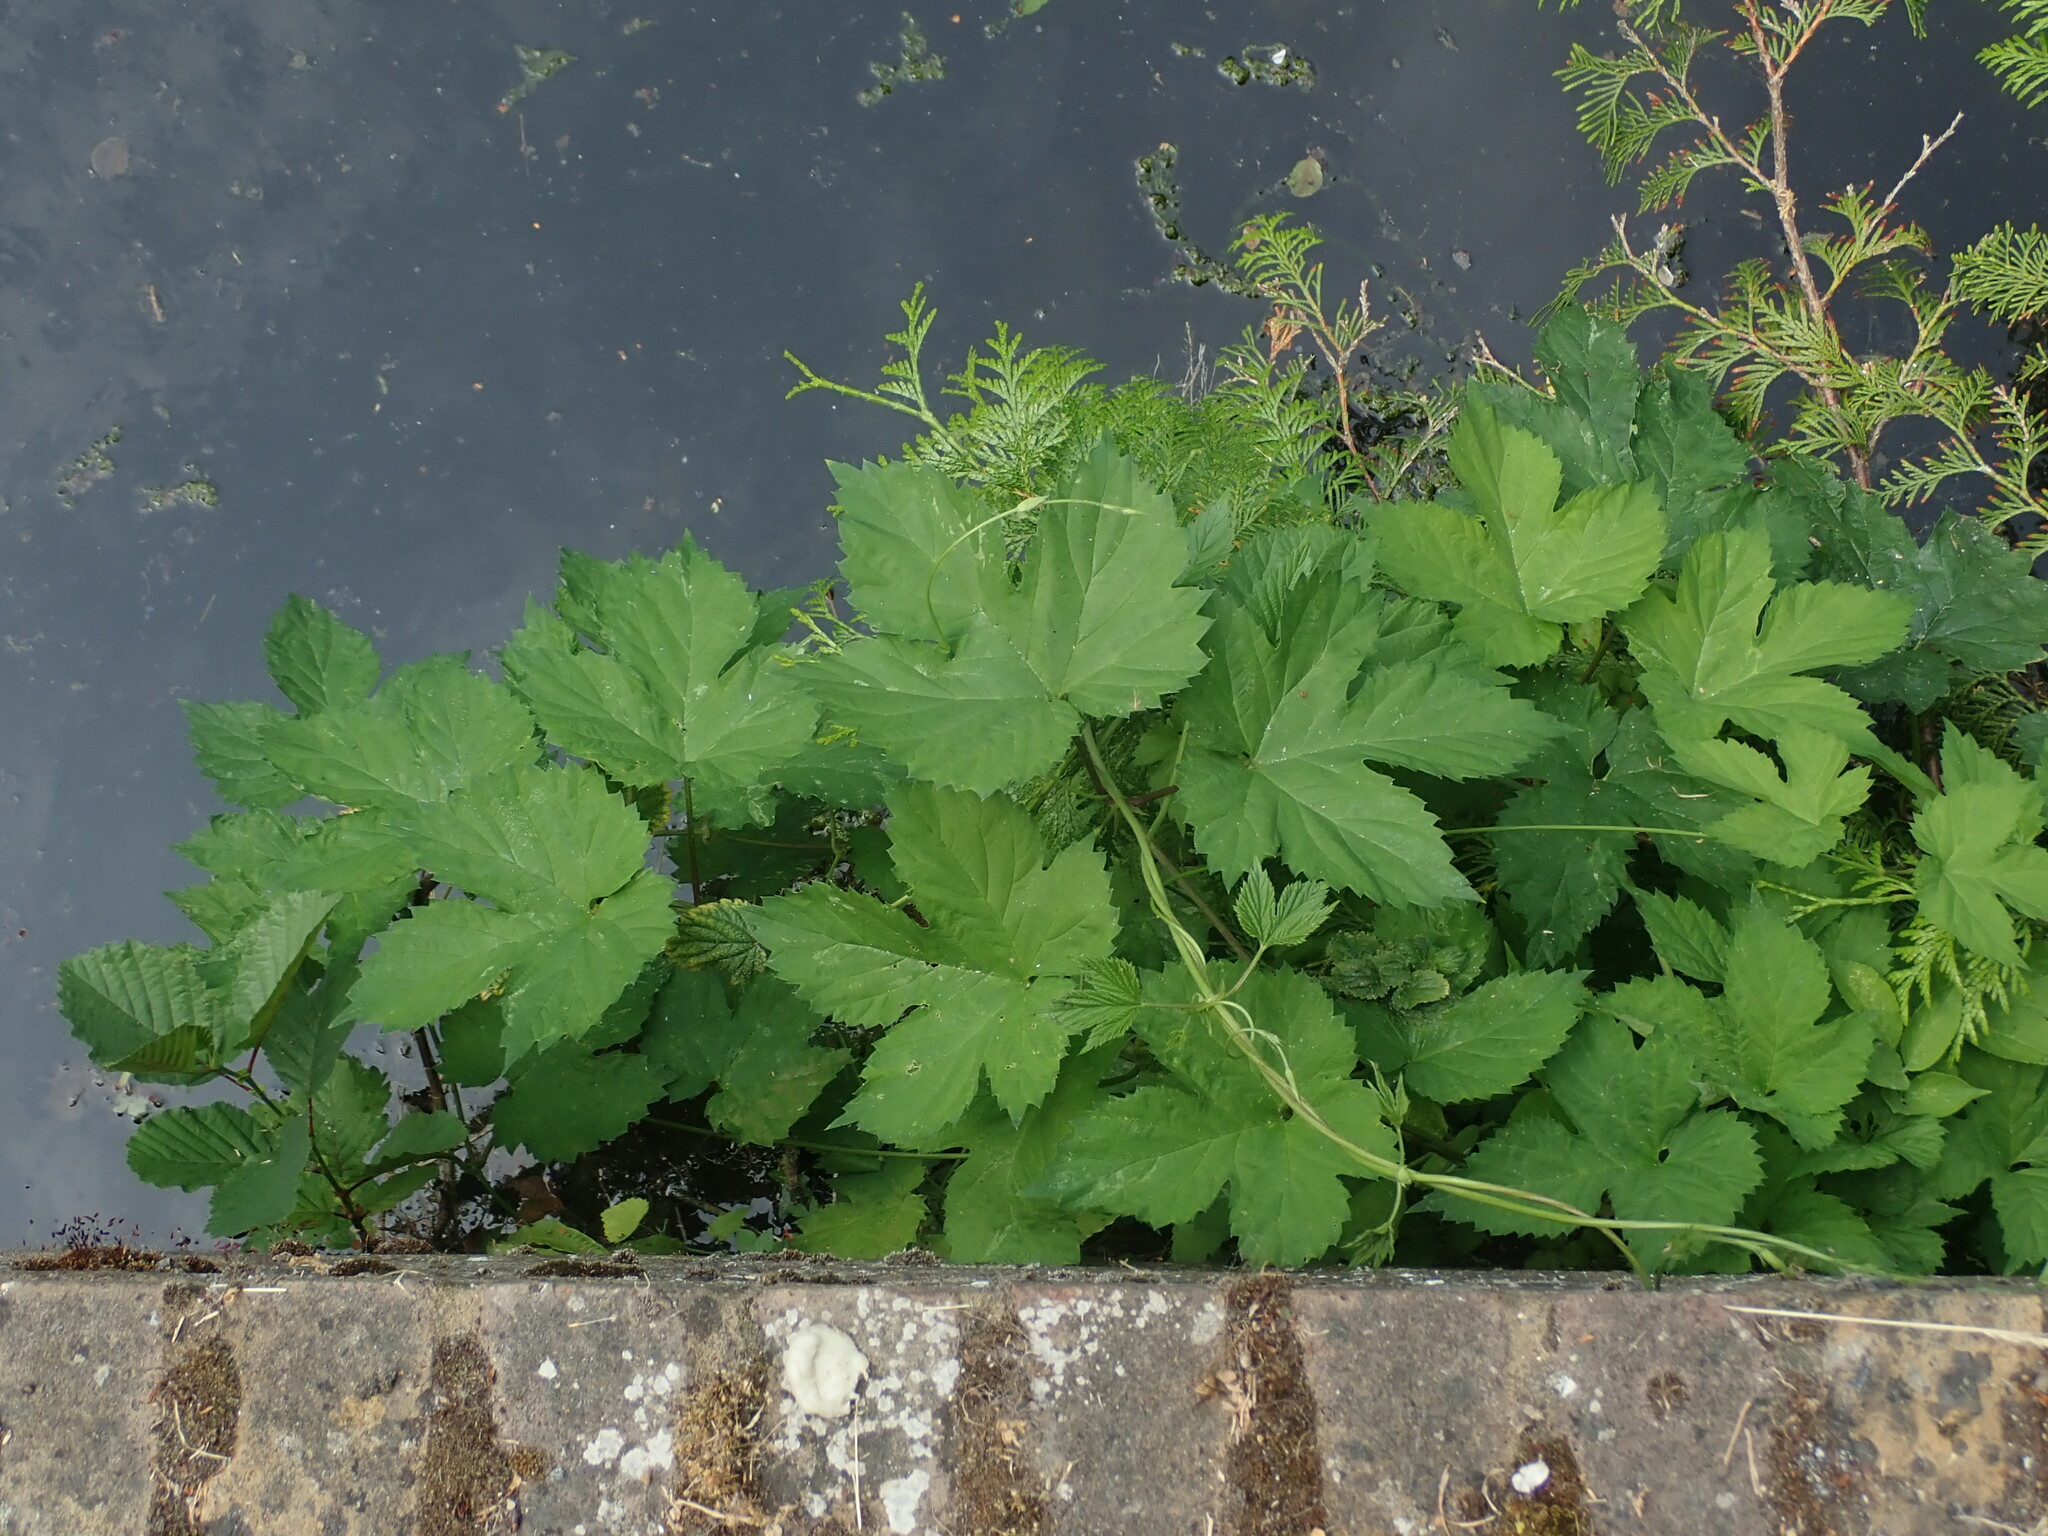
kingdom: Plantae
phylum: Tracheophyta
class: Magnoliopsida
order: Rosales
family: Cannabaceae
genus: Humulus
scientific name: Humulus lupulus
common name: Hop
